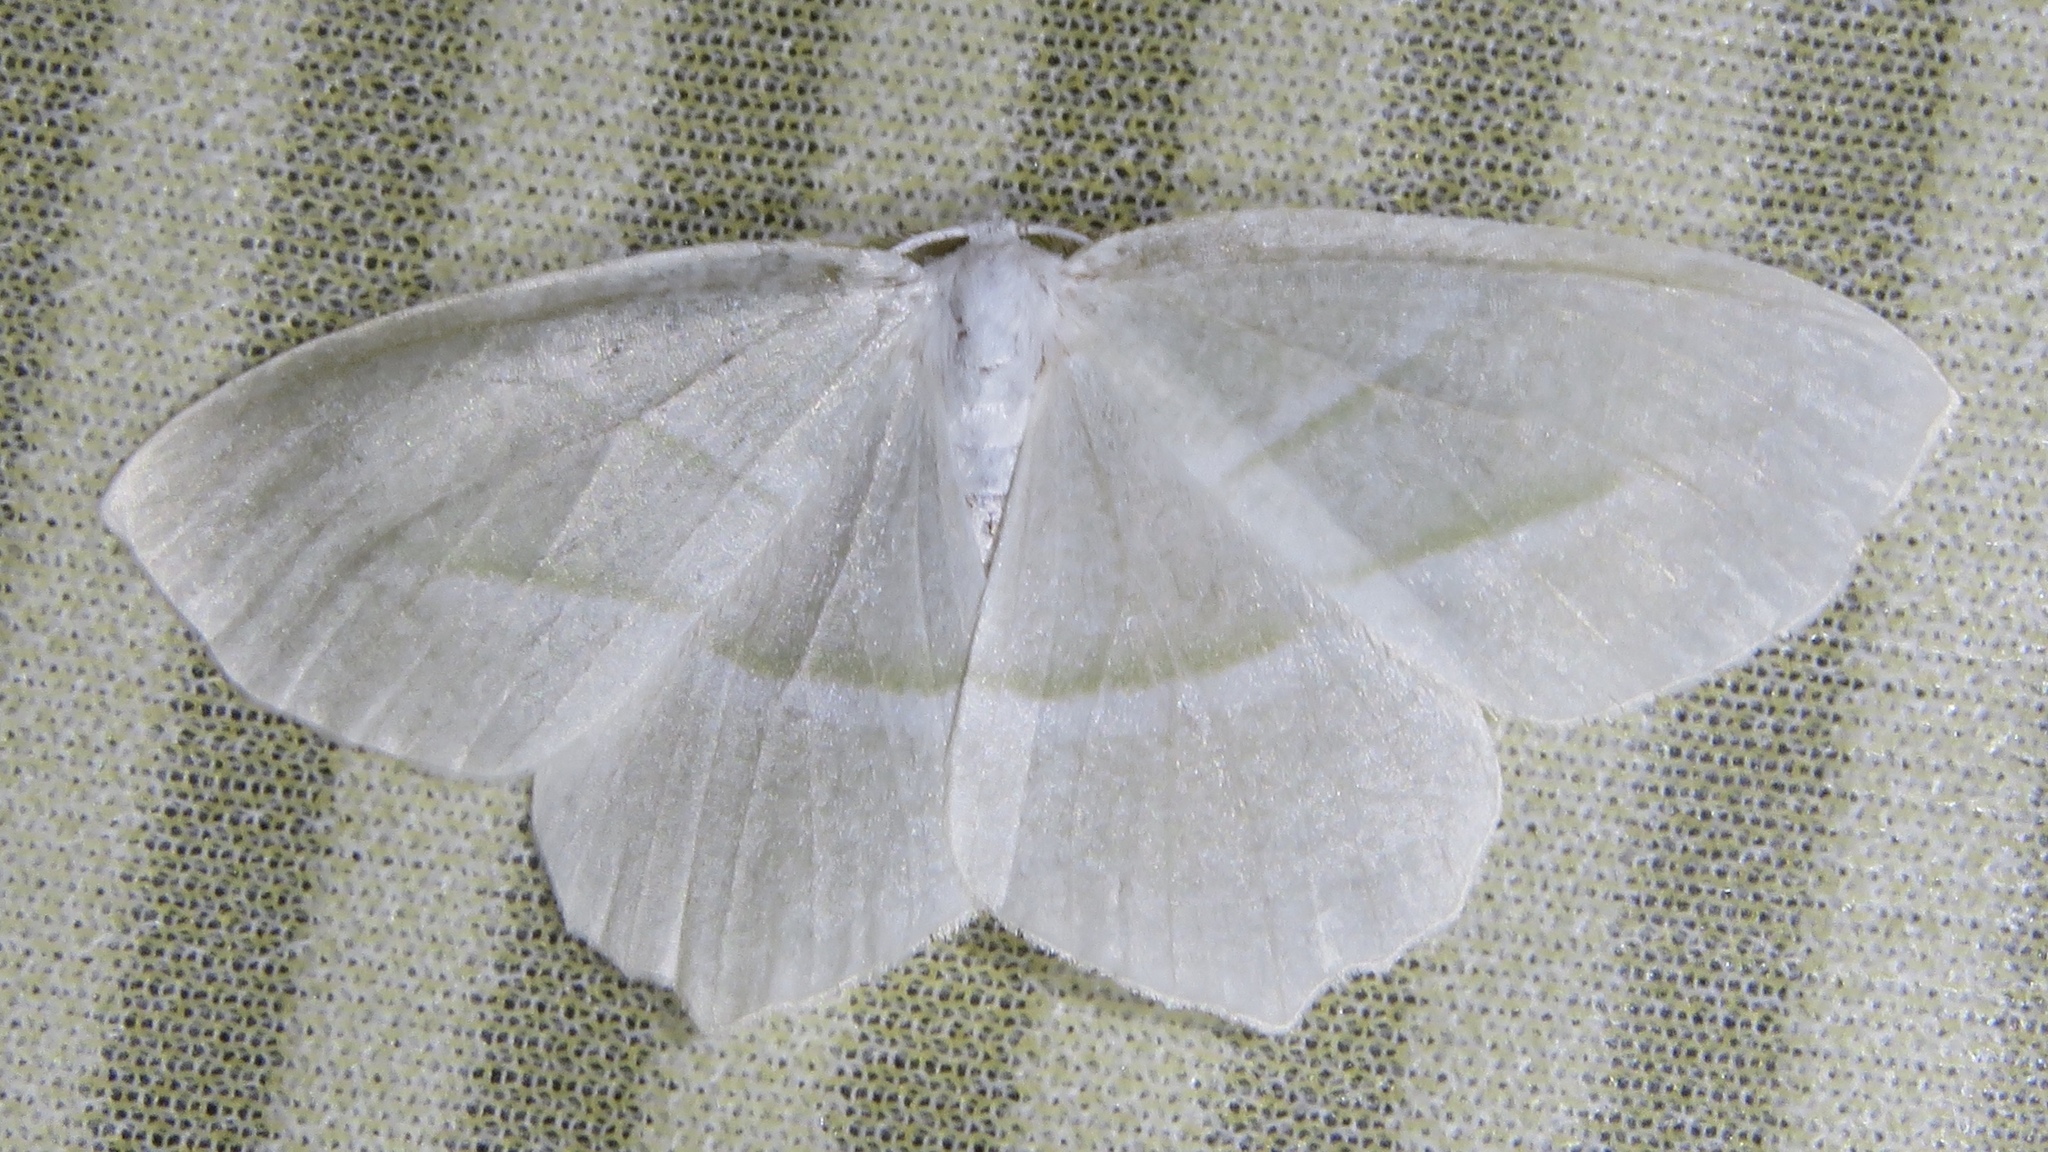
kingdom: Animalia
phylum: Arthropoda
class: Insecta
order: Lepidoptera
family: Geometridae
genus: Campaea
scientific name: Campaea perlata
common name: Fringed looper
